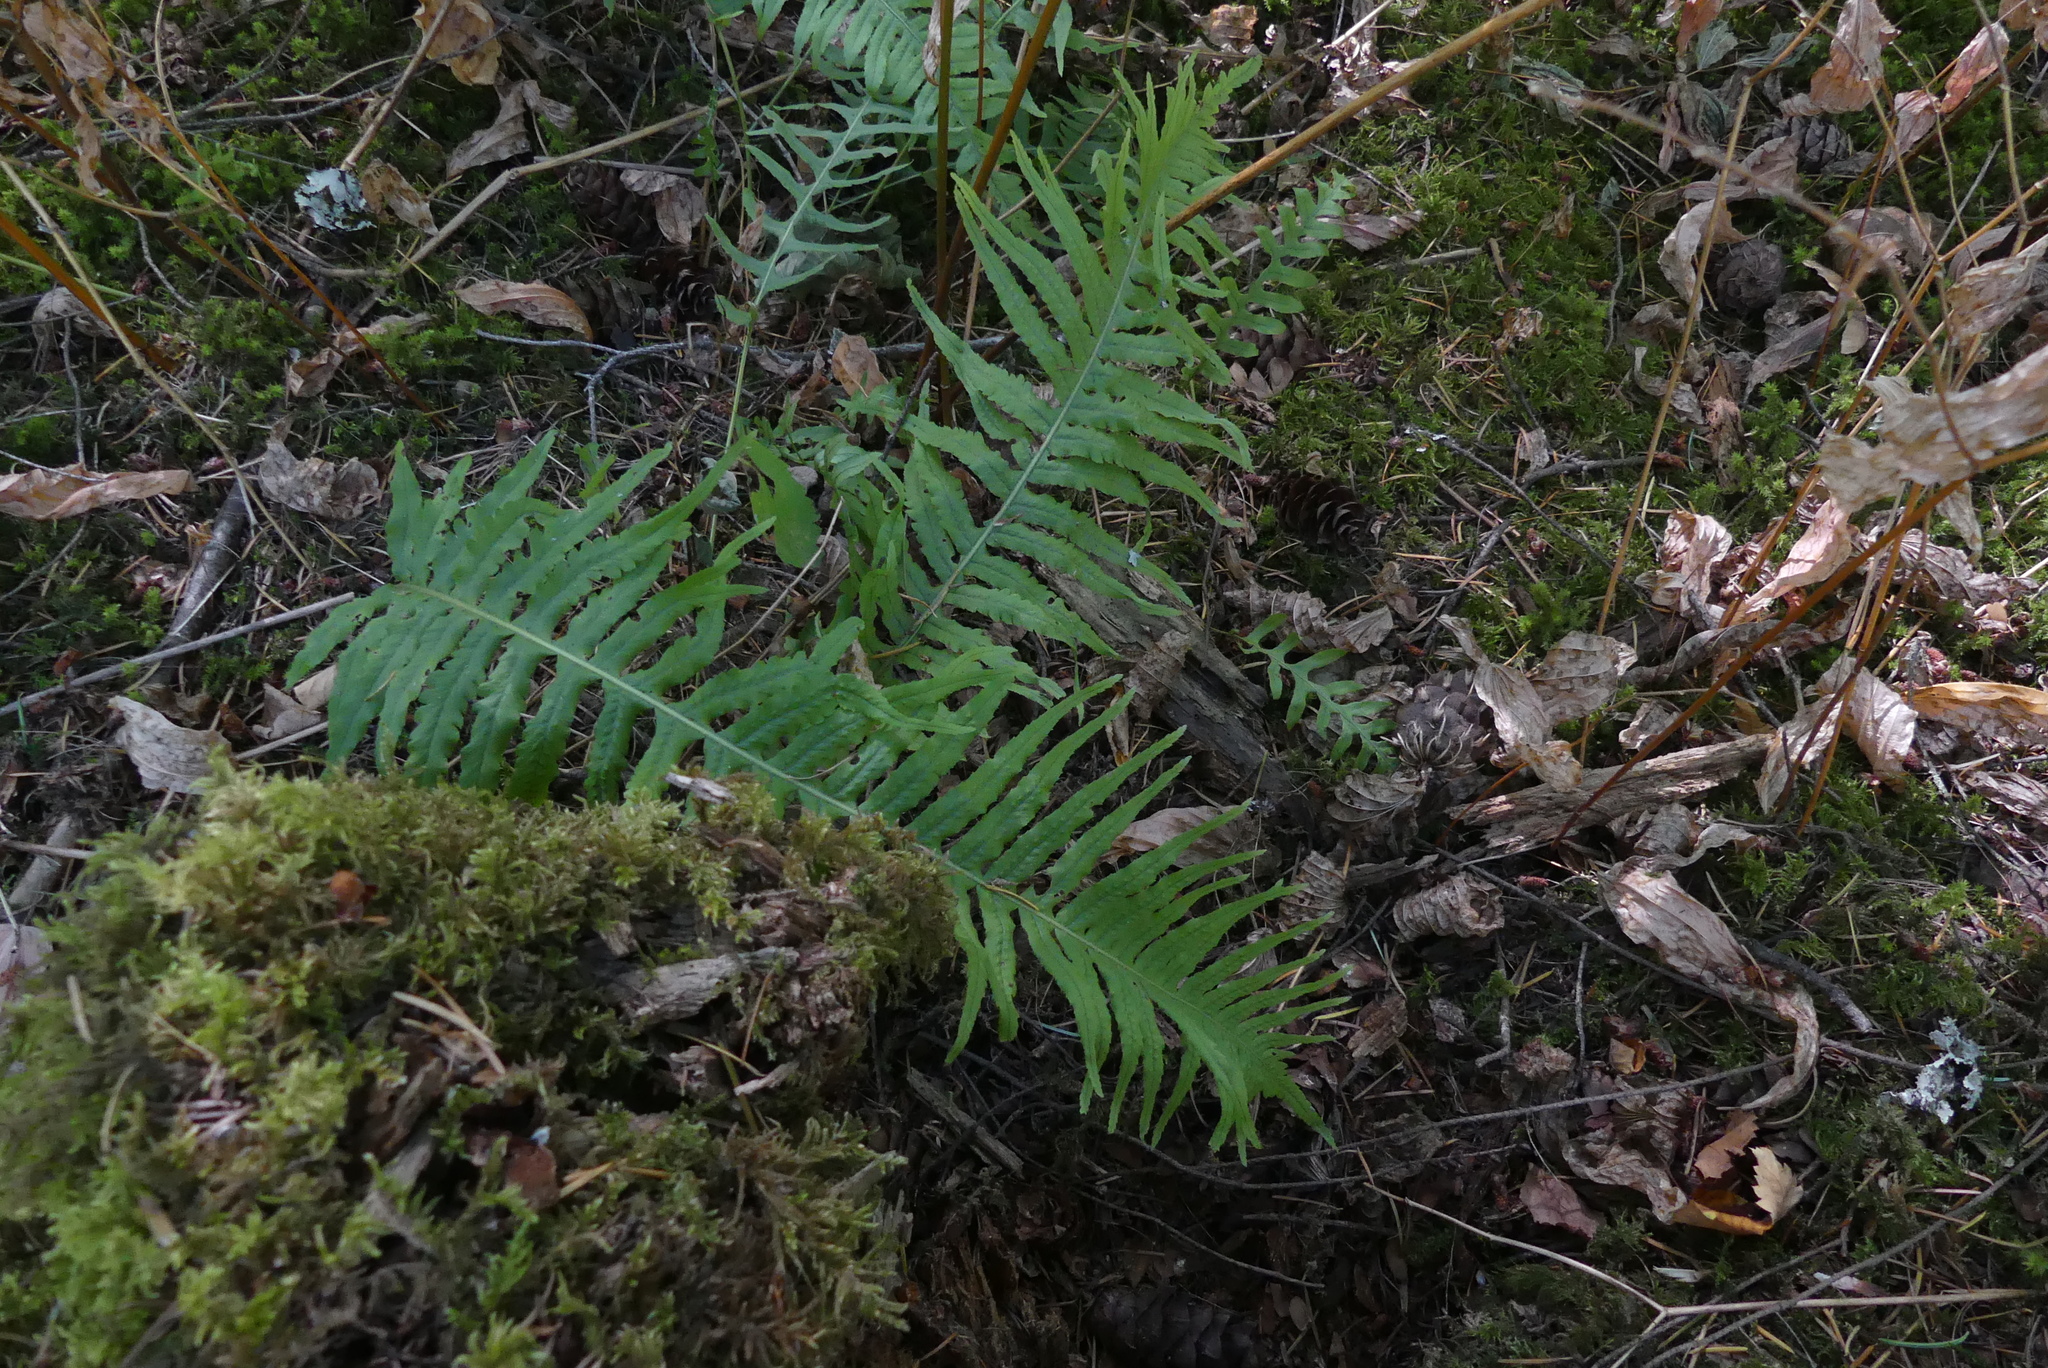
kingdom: Plantae
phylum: Tracheophyta
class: Polypodiopsida
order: Polypodiales
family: Polypodiaceae
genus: Polypodium
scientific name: Polypodium glycyrrhiza
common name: Licorice fern
